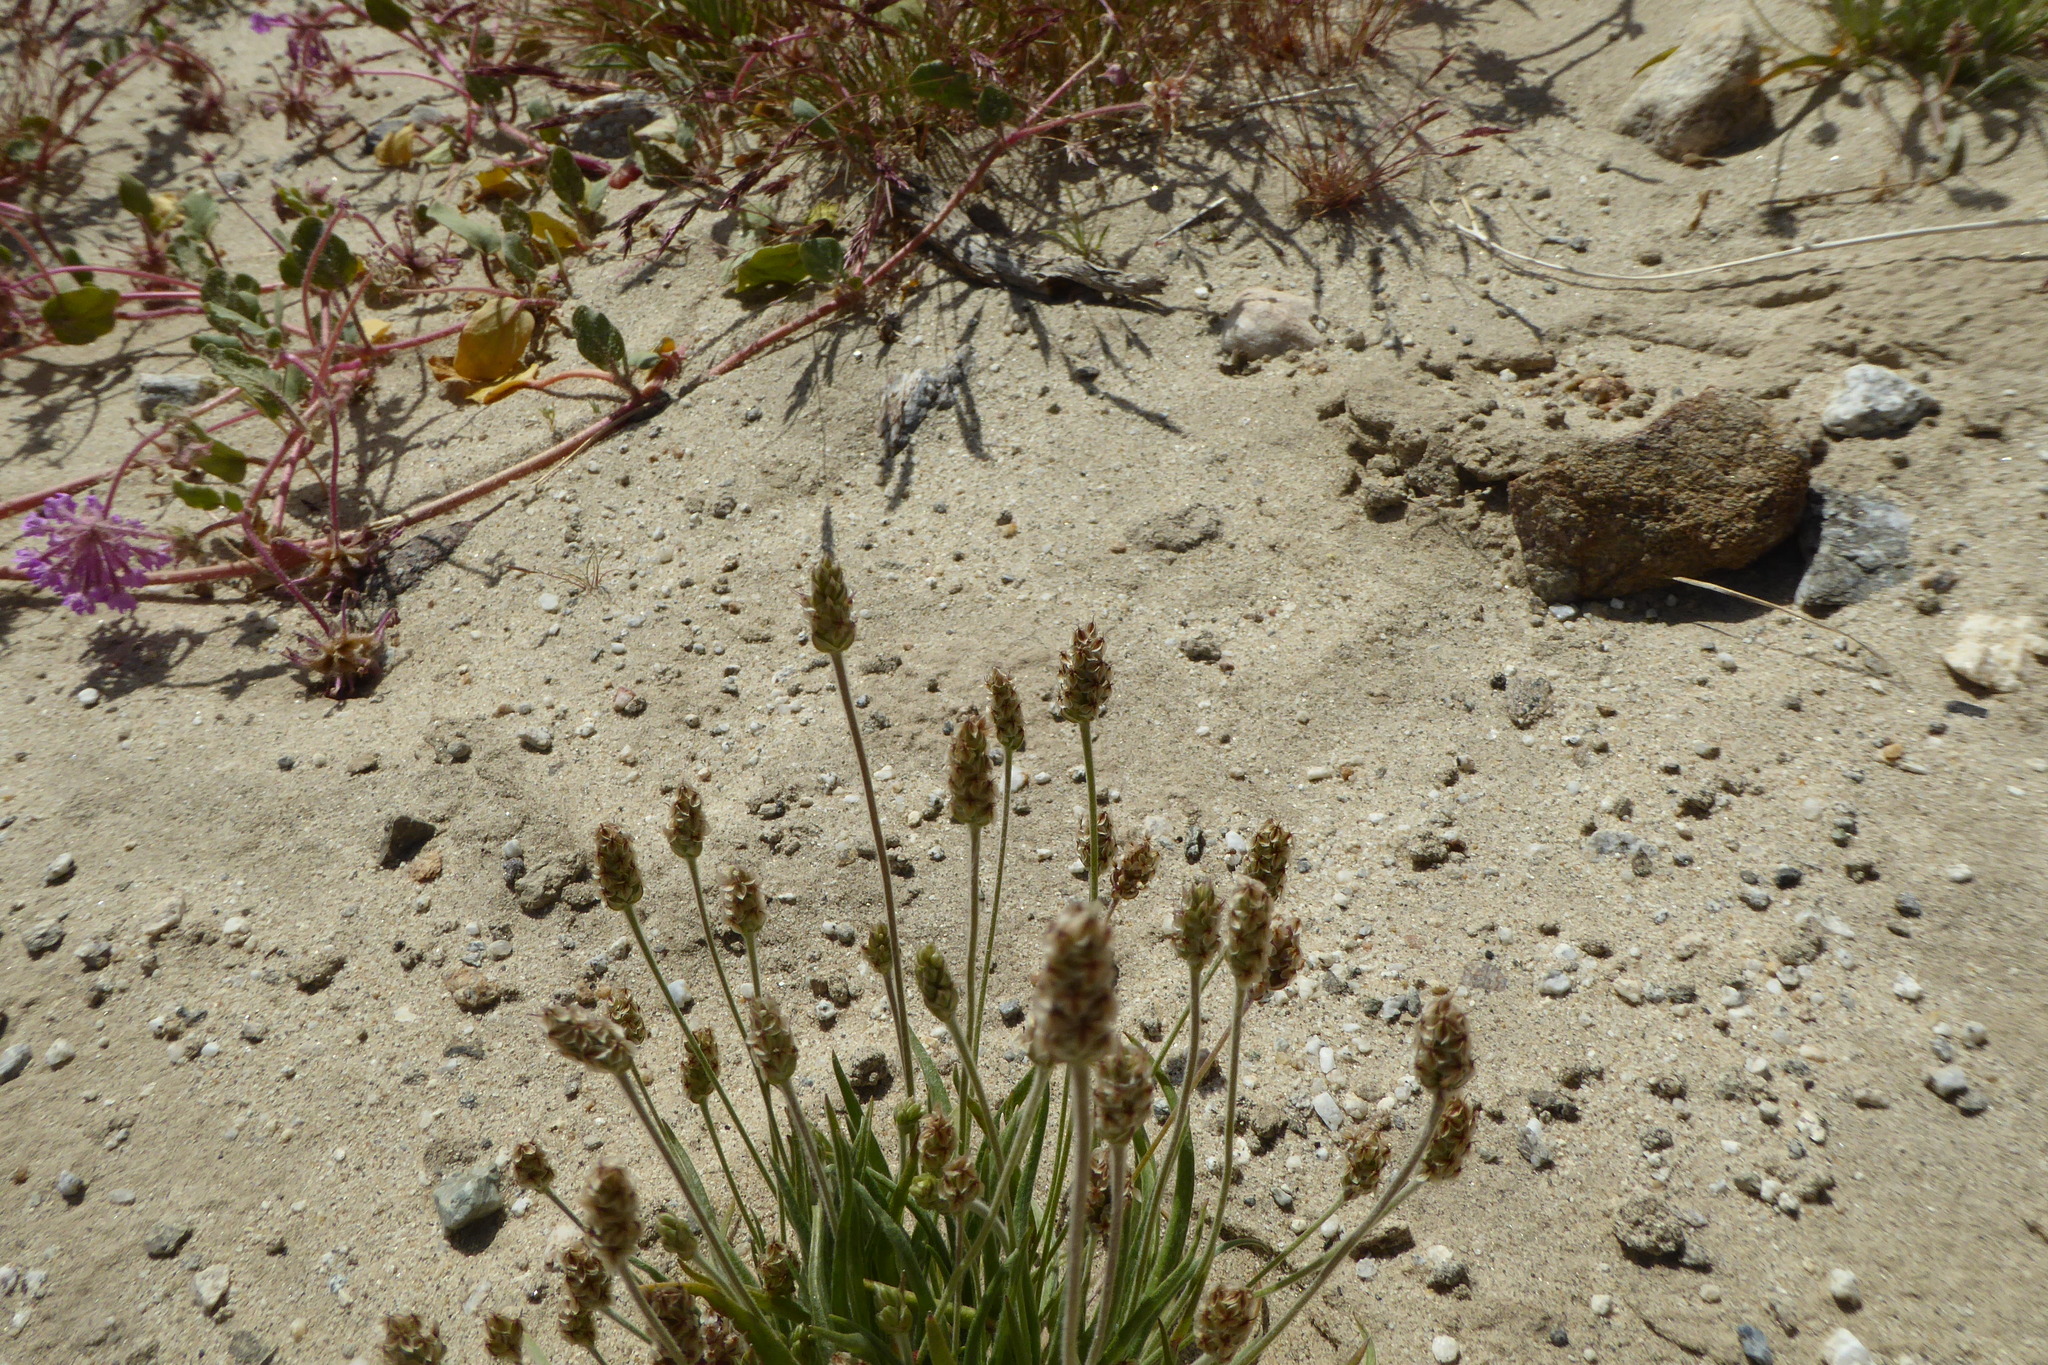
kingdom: Plantae
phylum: Tracheophyta
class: Magnoliopsida
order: Lamiales
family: Plantaginaceae
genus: Plantago
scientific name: Plantago ovata
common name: Blond plantain
